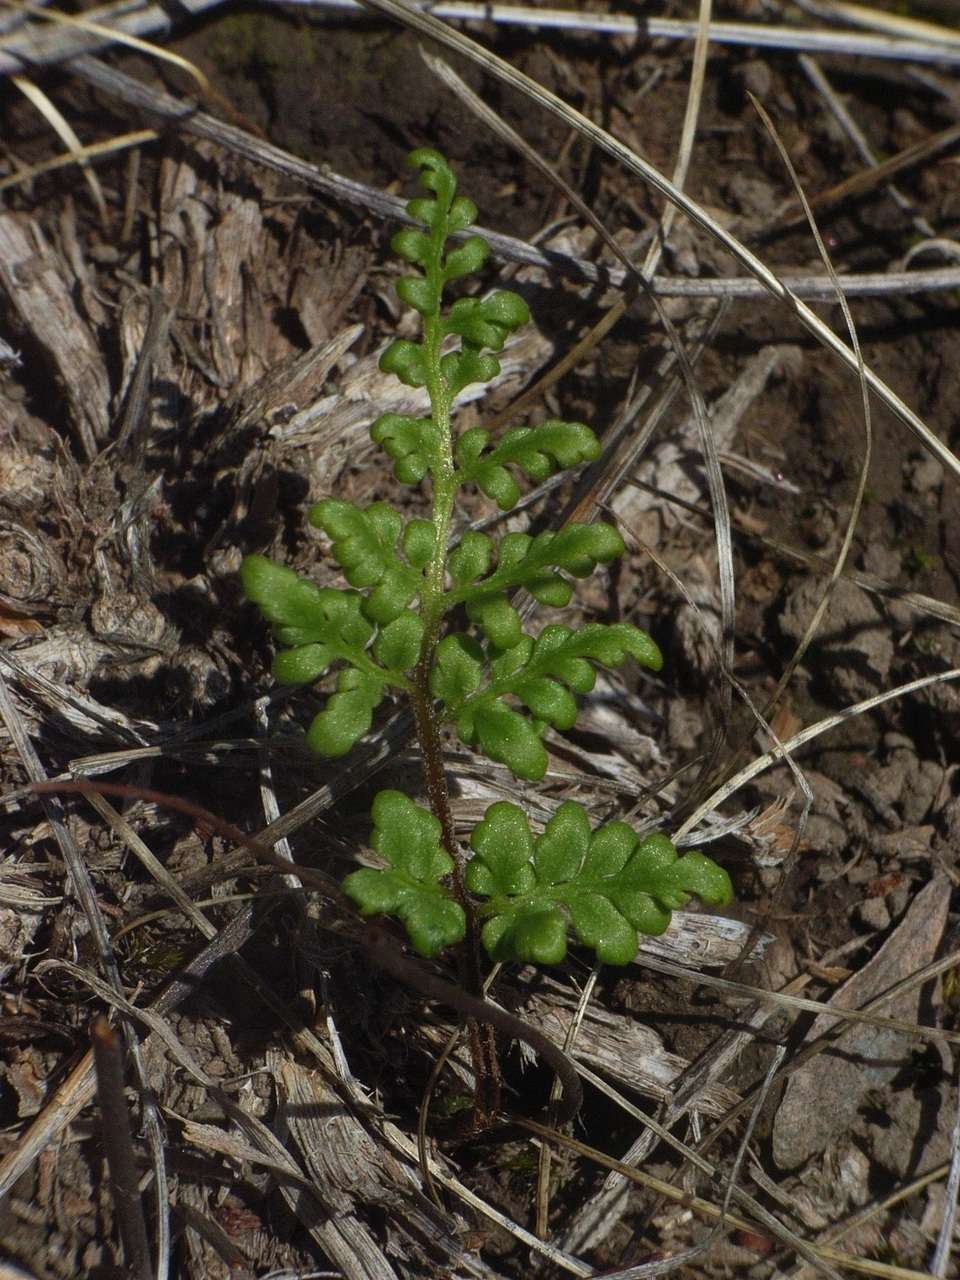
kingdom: Plantae
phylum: Tracheophyta
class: Polypodiopsida
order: Polypodiales
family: Pteridaceae
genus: Cheilanthes
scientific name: Cheilanthes sieberi
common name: Mulga fern
